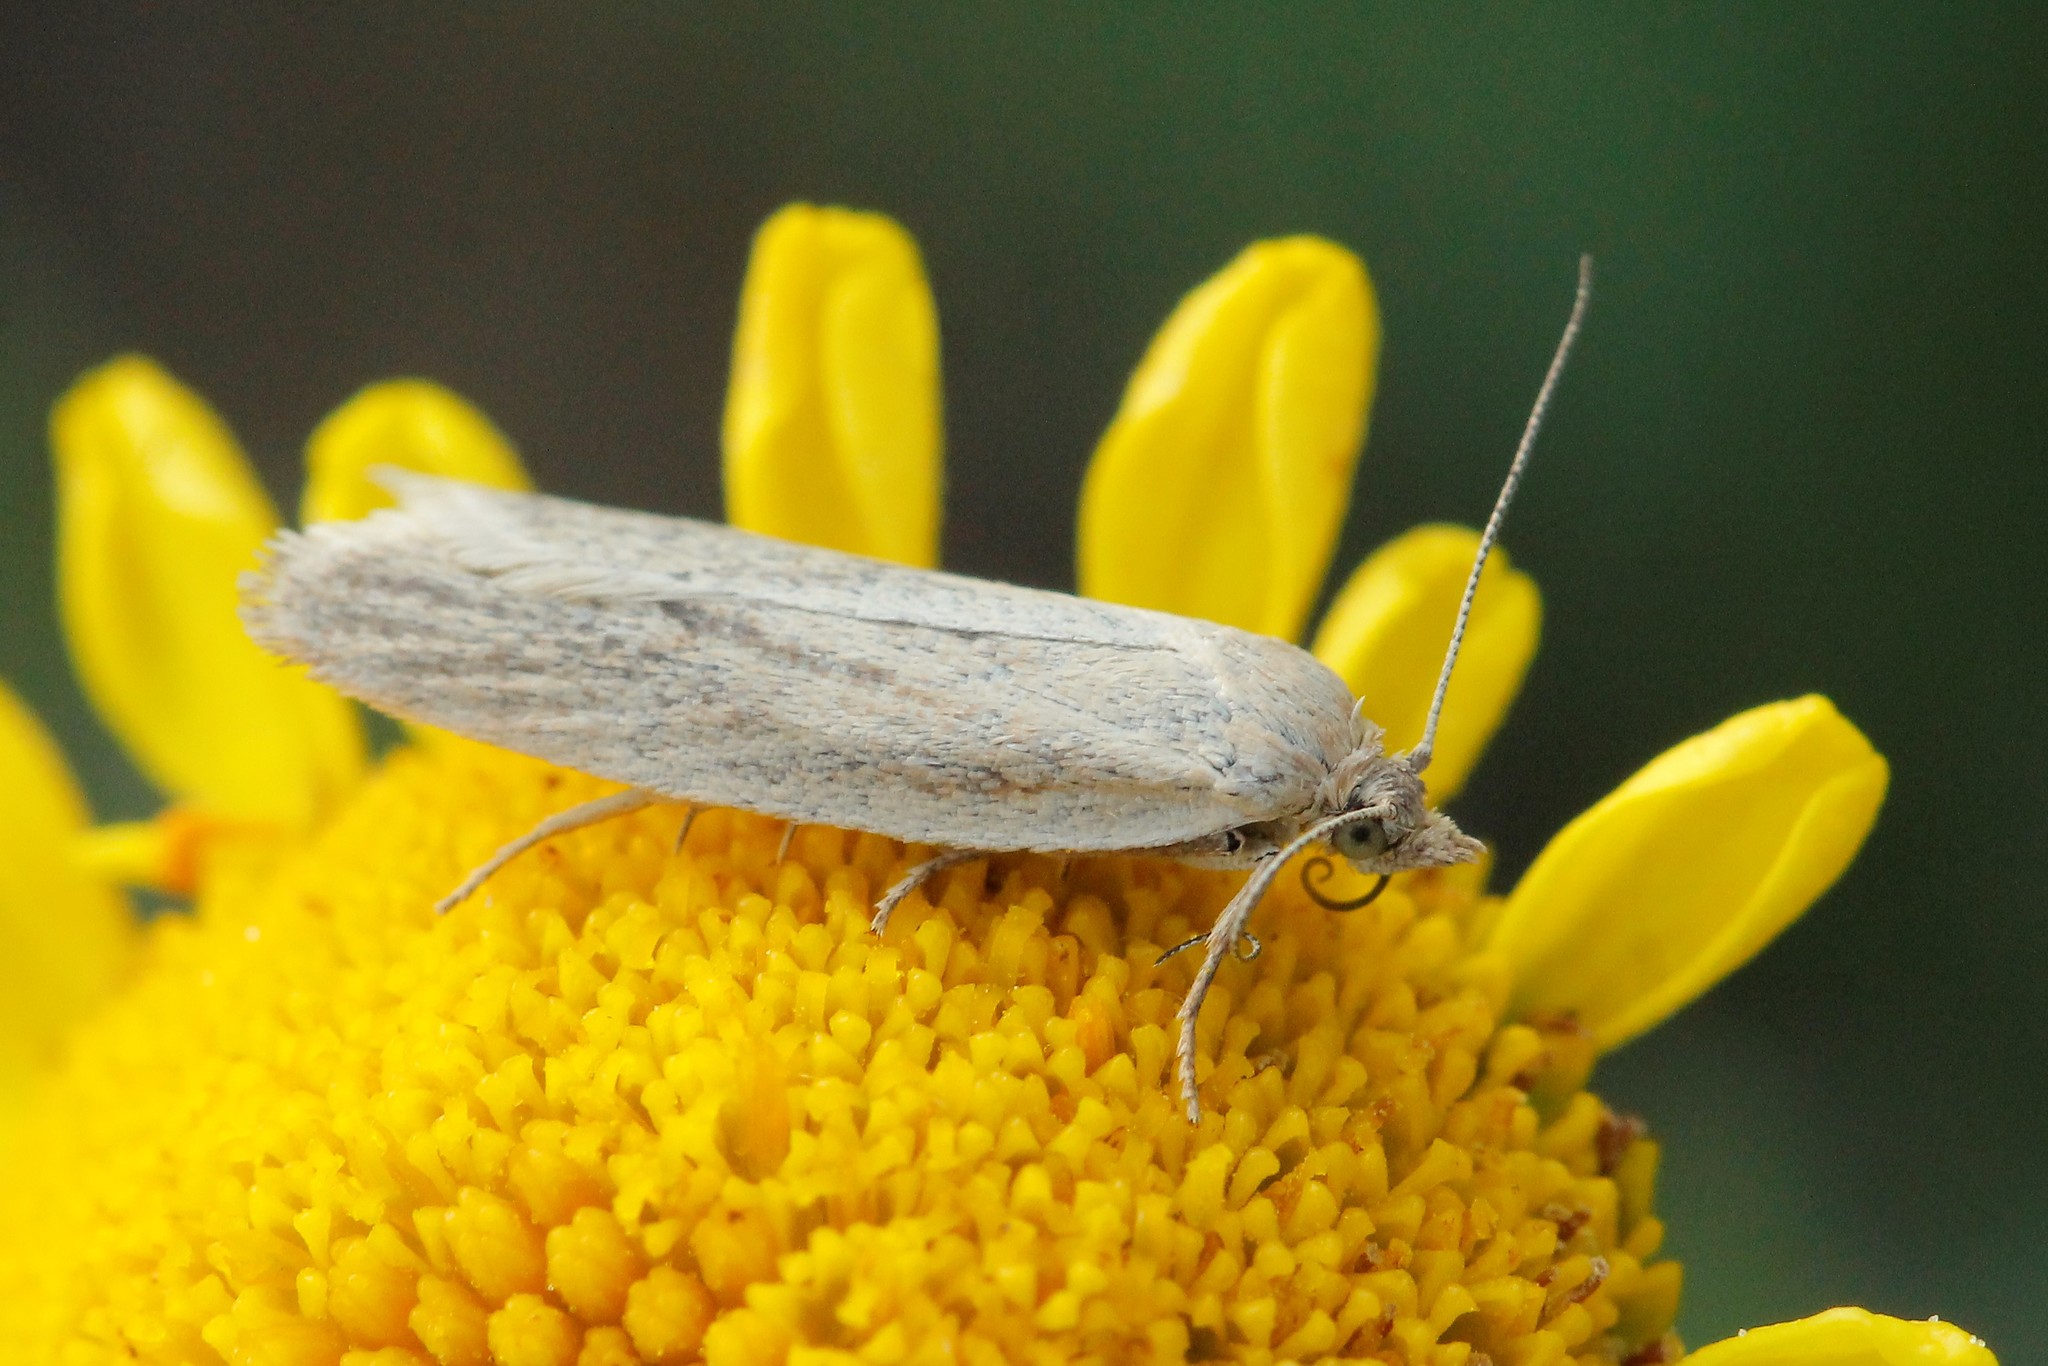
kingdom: Animalia
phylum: Arthropoda
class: Insecta
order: Lepidoptera
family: Tortricidae
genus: Eana
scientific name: Eana osseana
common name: Dotted shade
